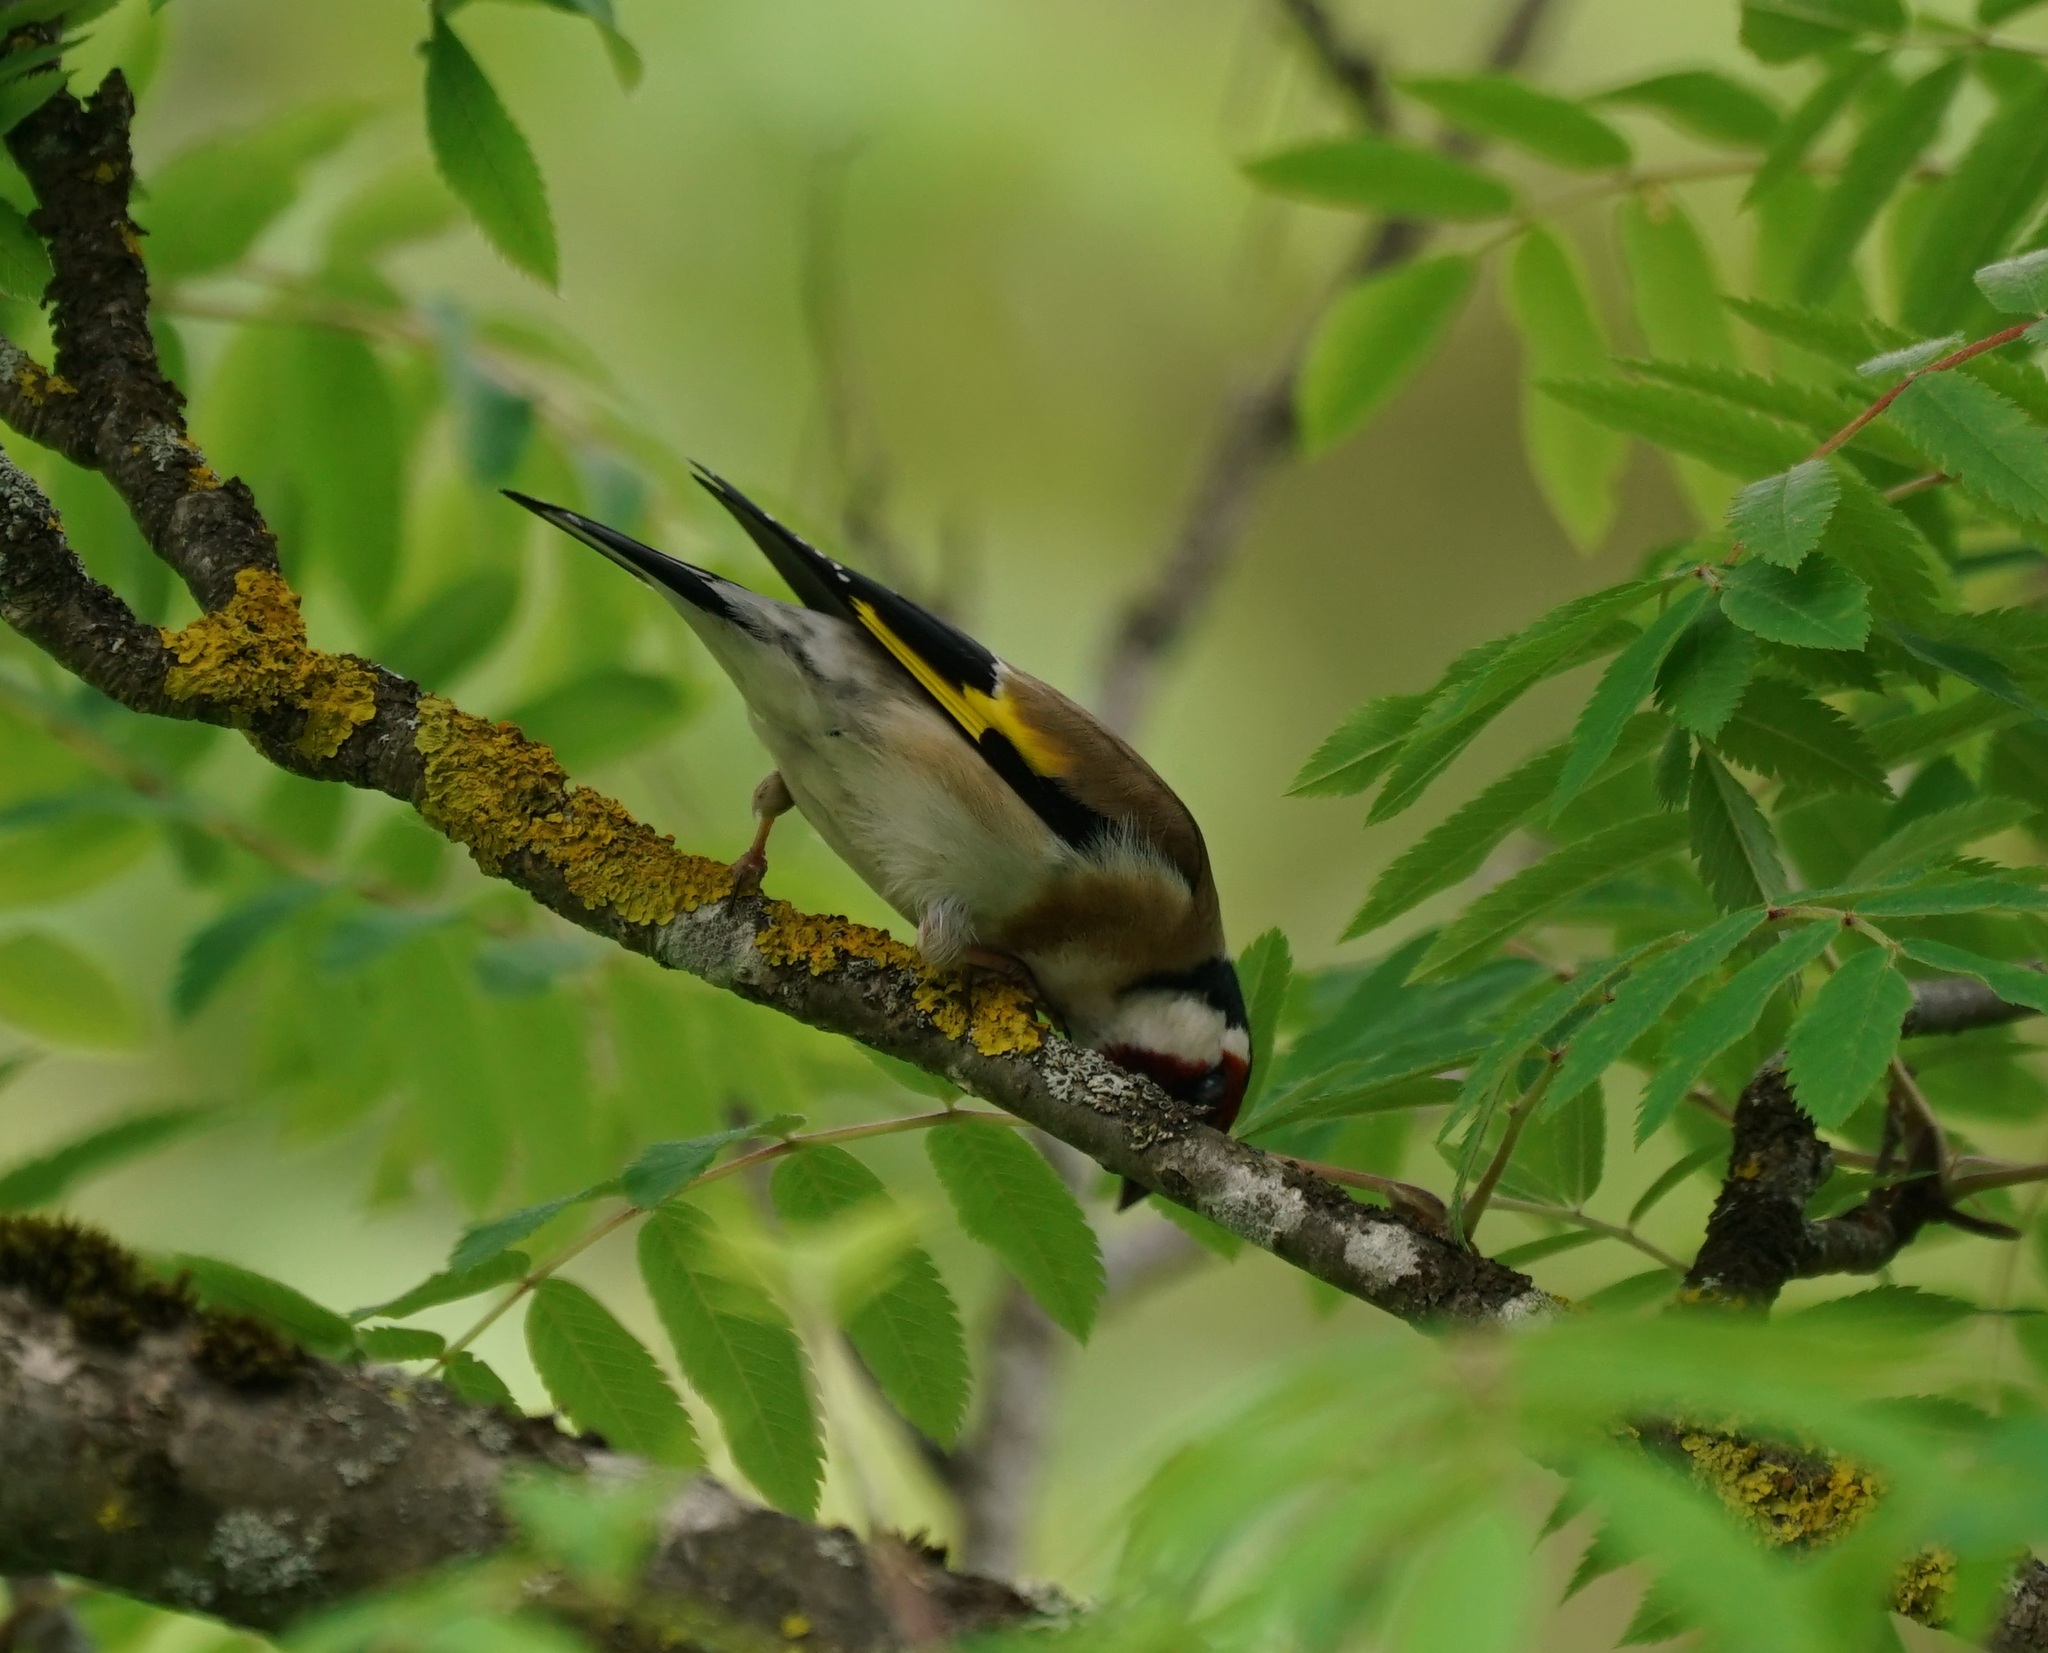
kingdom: Animalia
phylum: Chordata
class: Aves
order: Passeriformes
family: Fringillidae
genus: Carduelis
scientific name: Carduelis carduelis
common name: European goldfinch
